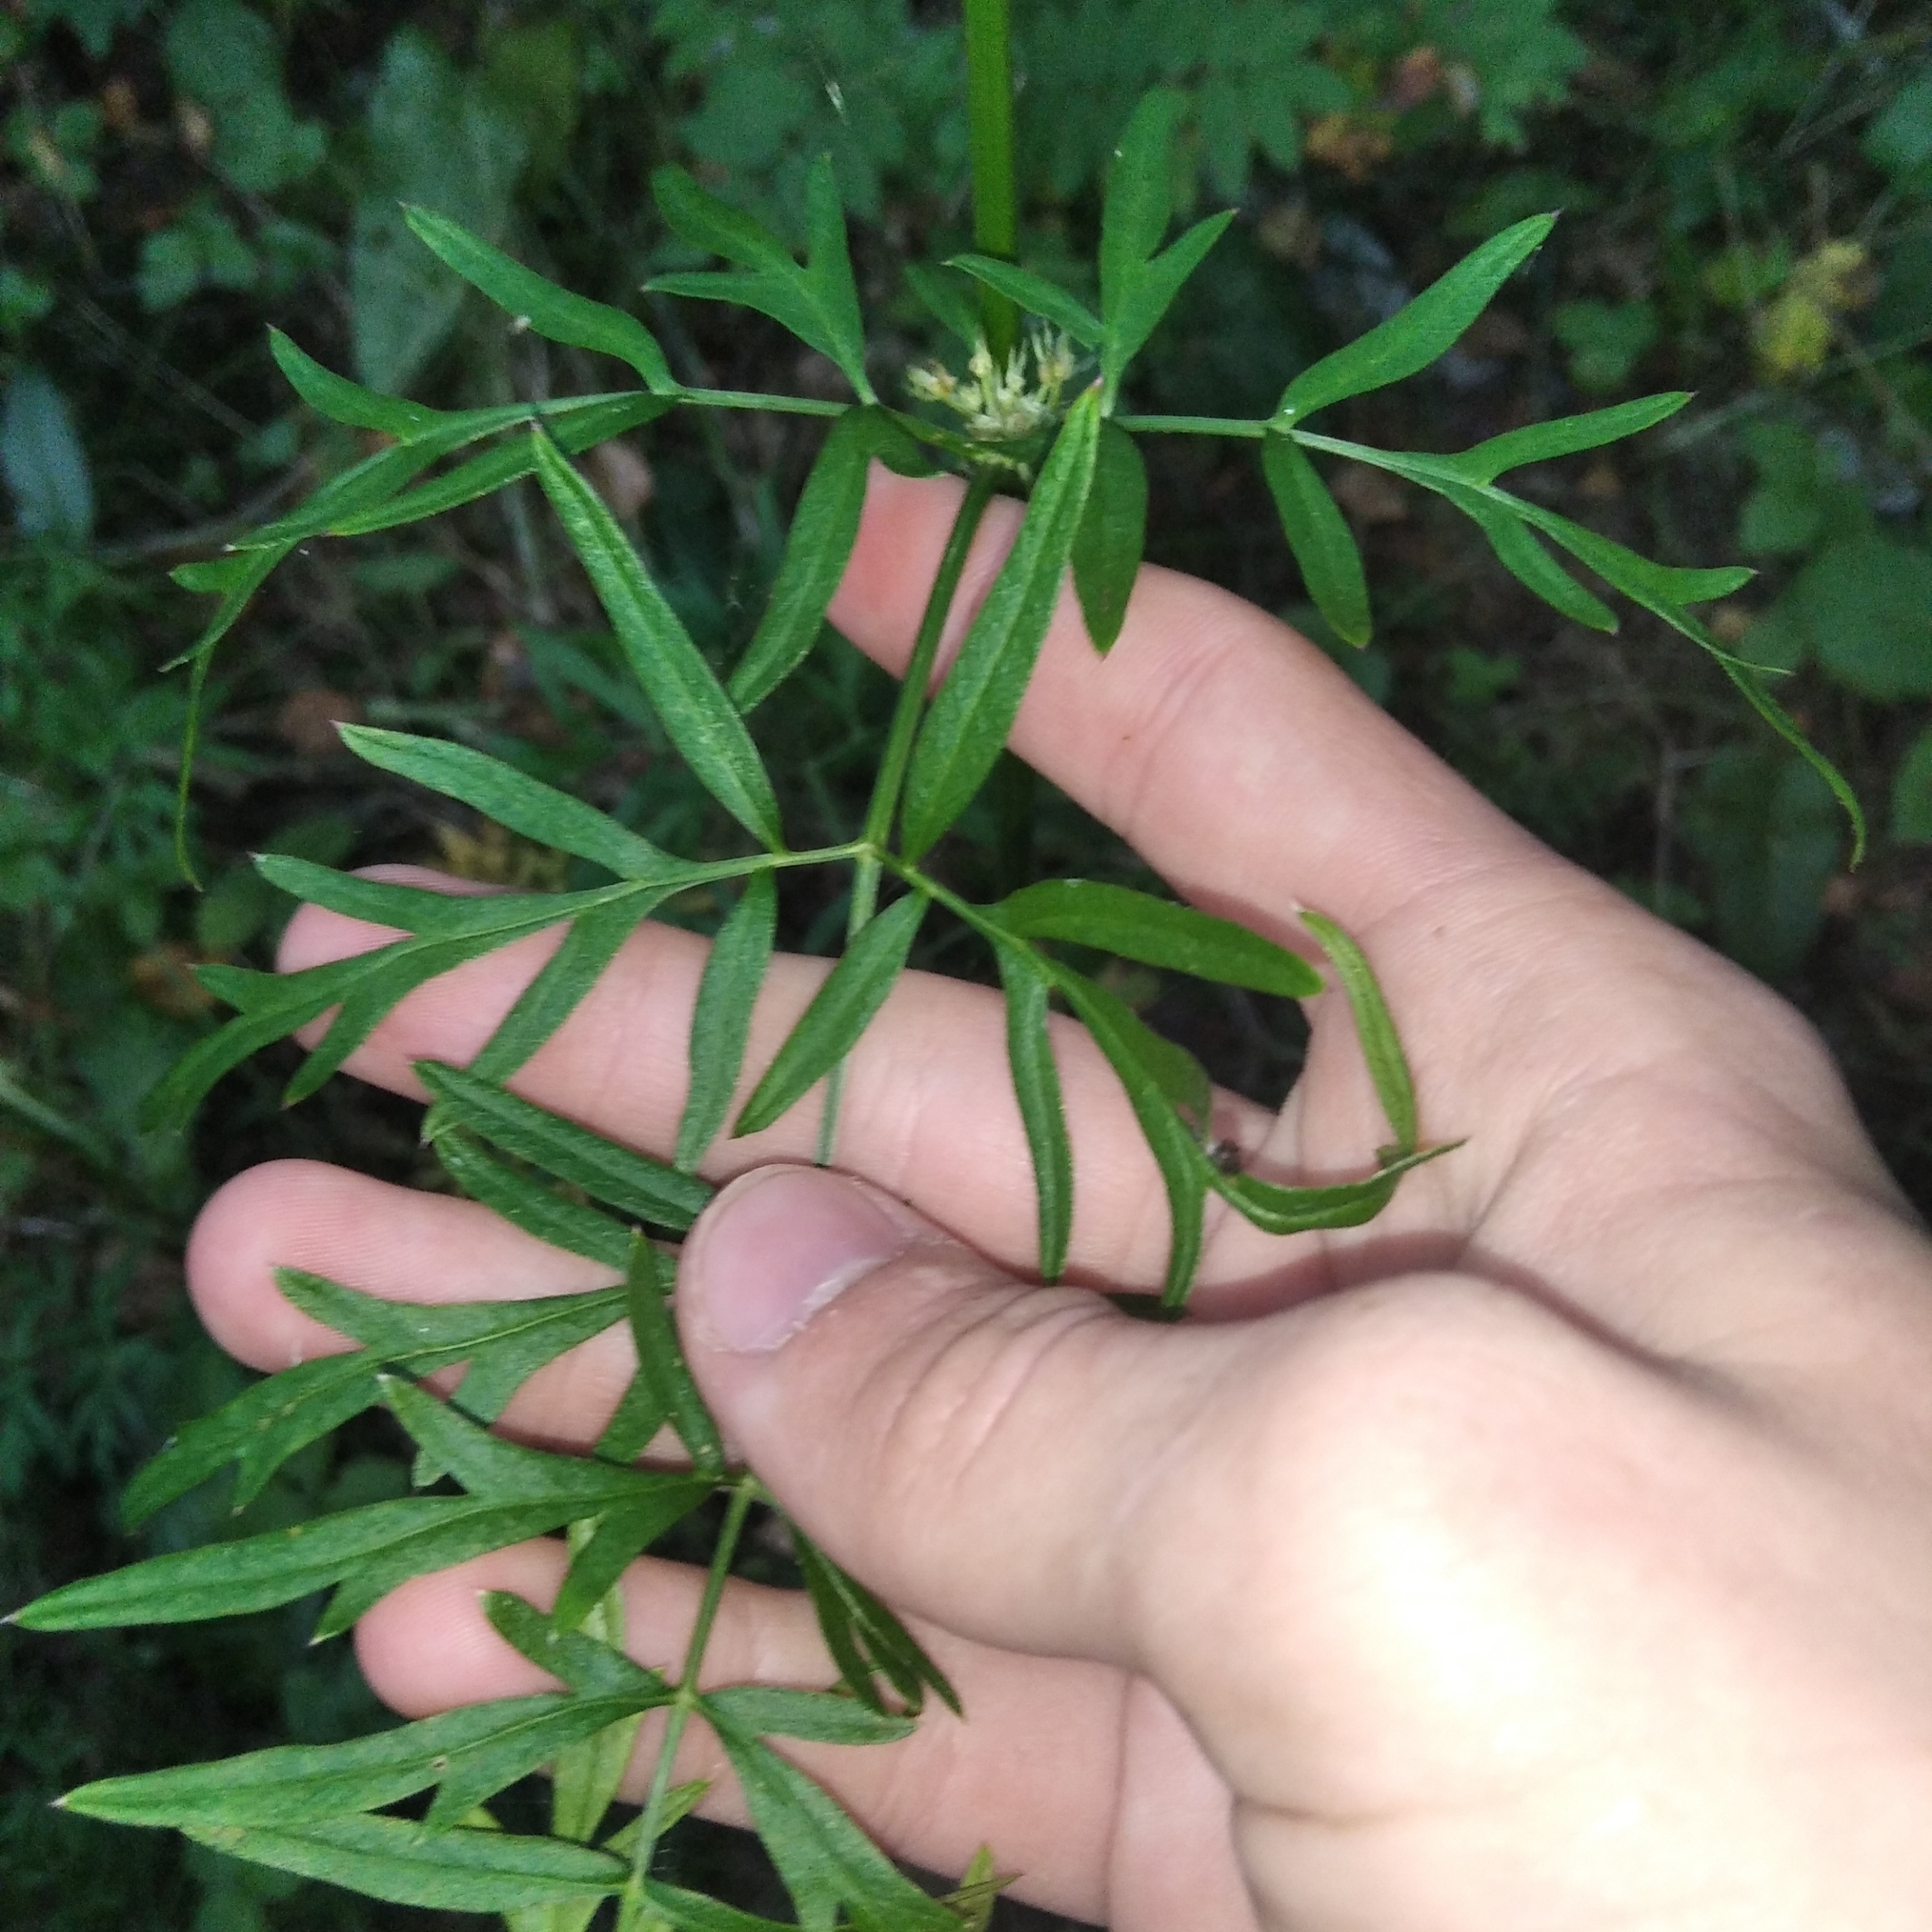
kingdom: Plantae
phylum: Tracheophyta
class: Magnoliopsida
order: Apiales
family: Apiaceae
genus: Silphiodaucus
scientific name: Silphiodaucus prutenicus
